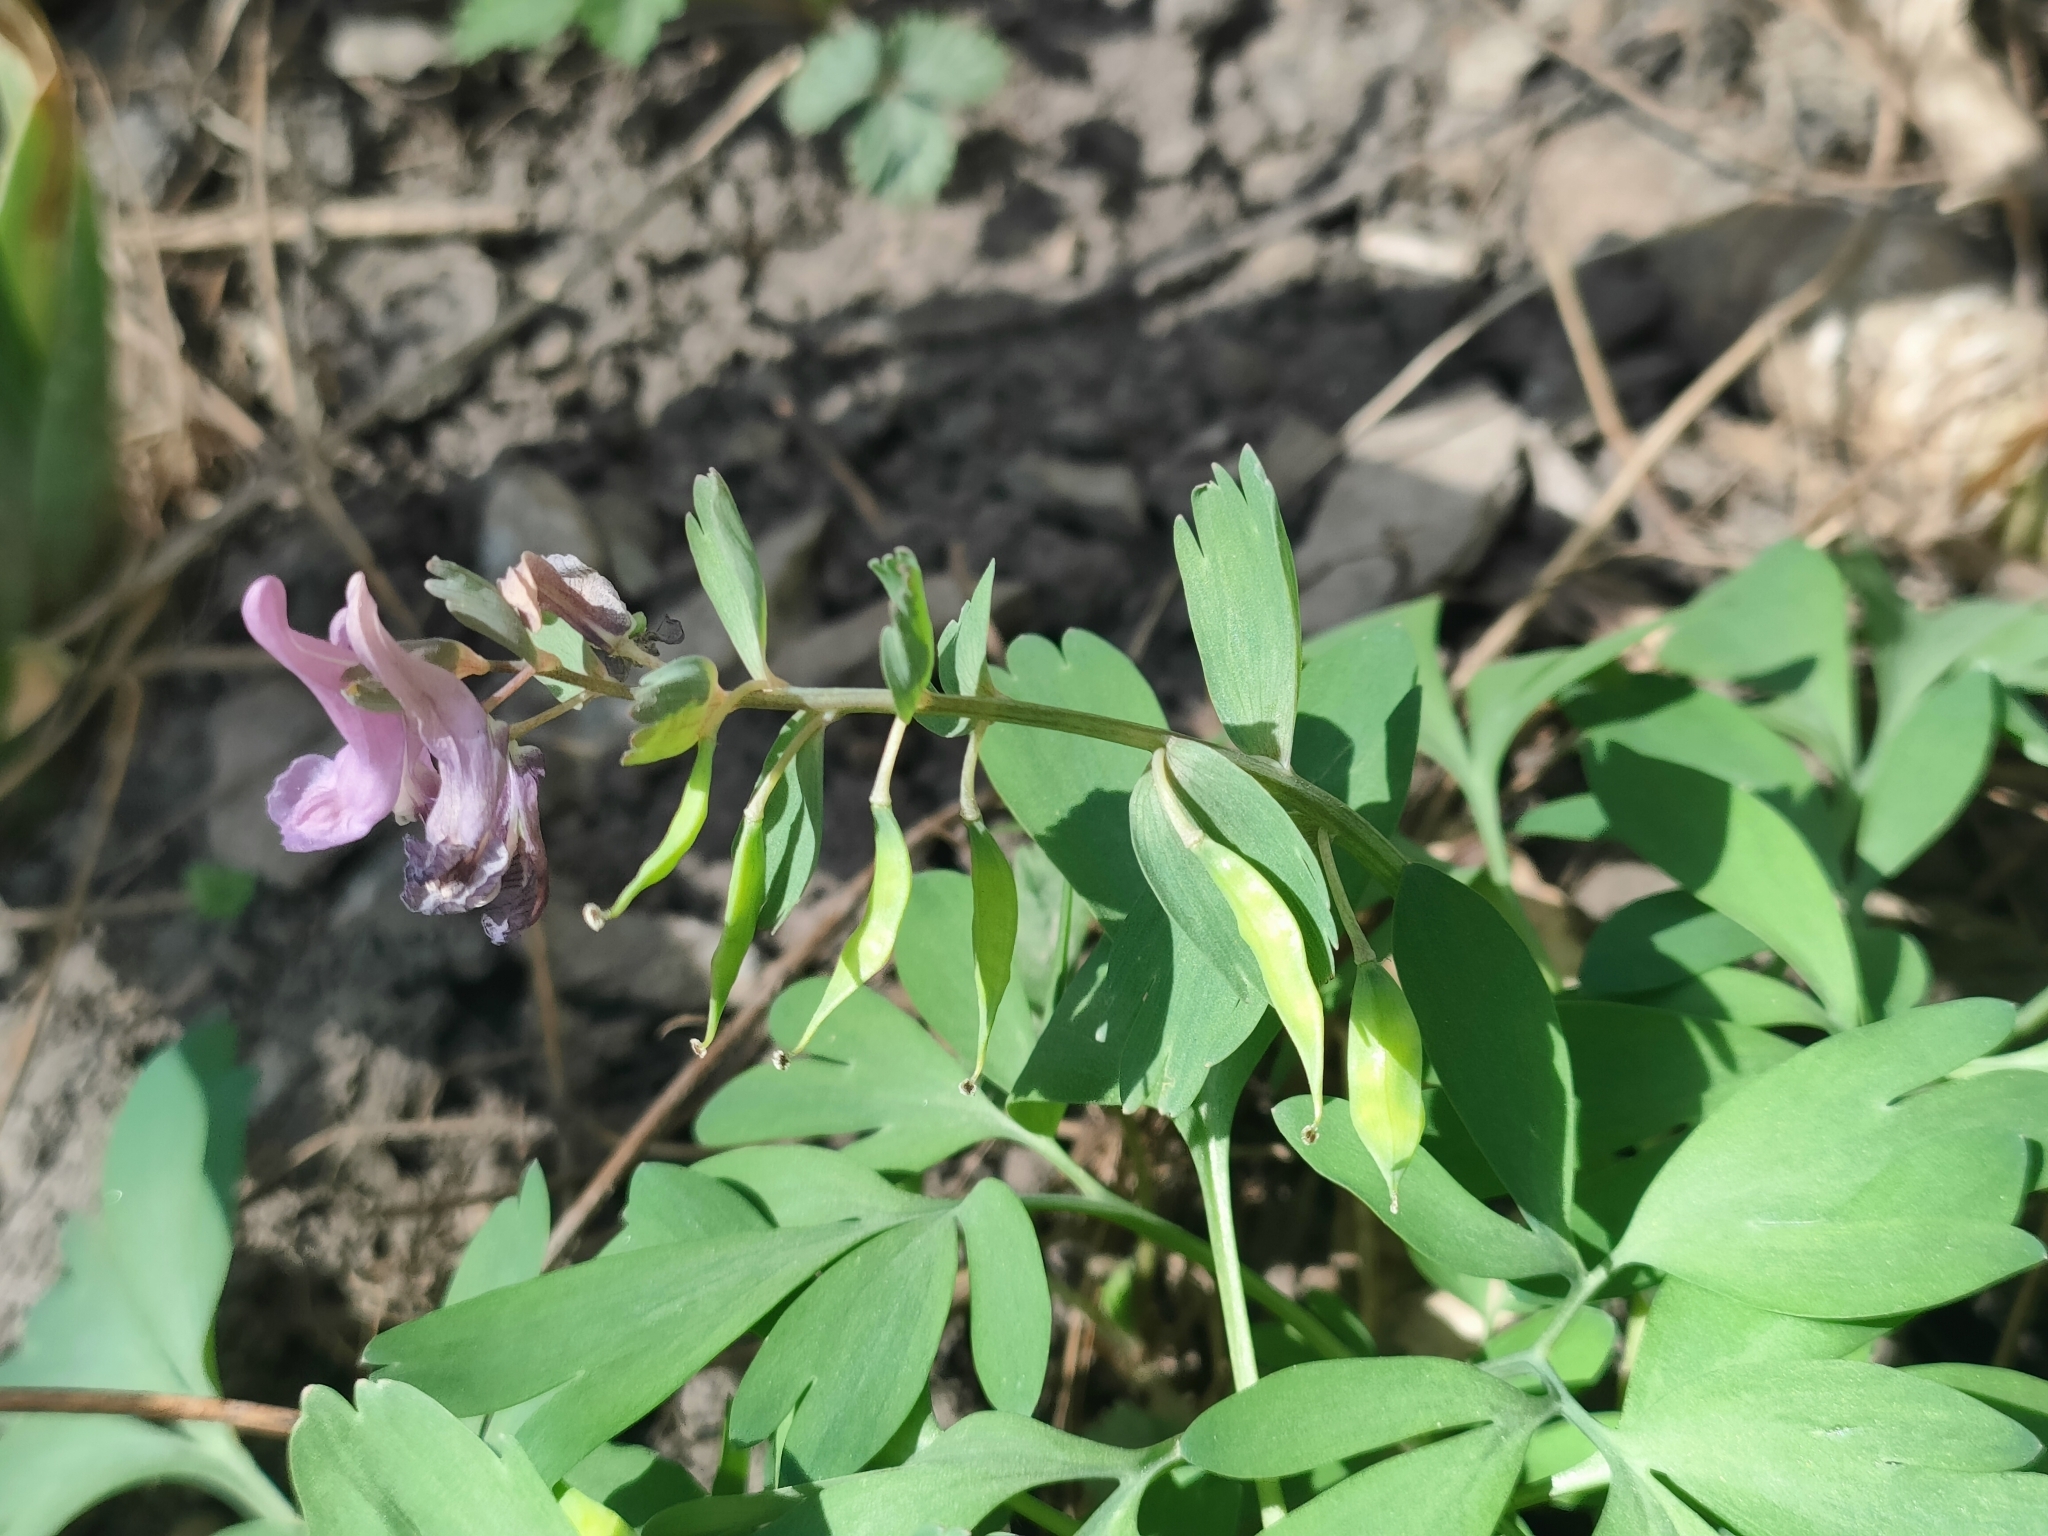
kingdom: Plantae
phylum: Tracheophyta
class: Magnoliopsida
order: Ranunculales
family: Papaveraceae
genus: Corydalis
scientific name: Corydalis solida
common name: Bird-in-a-bush
